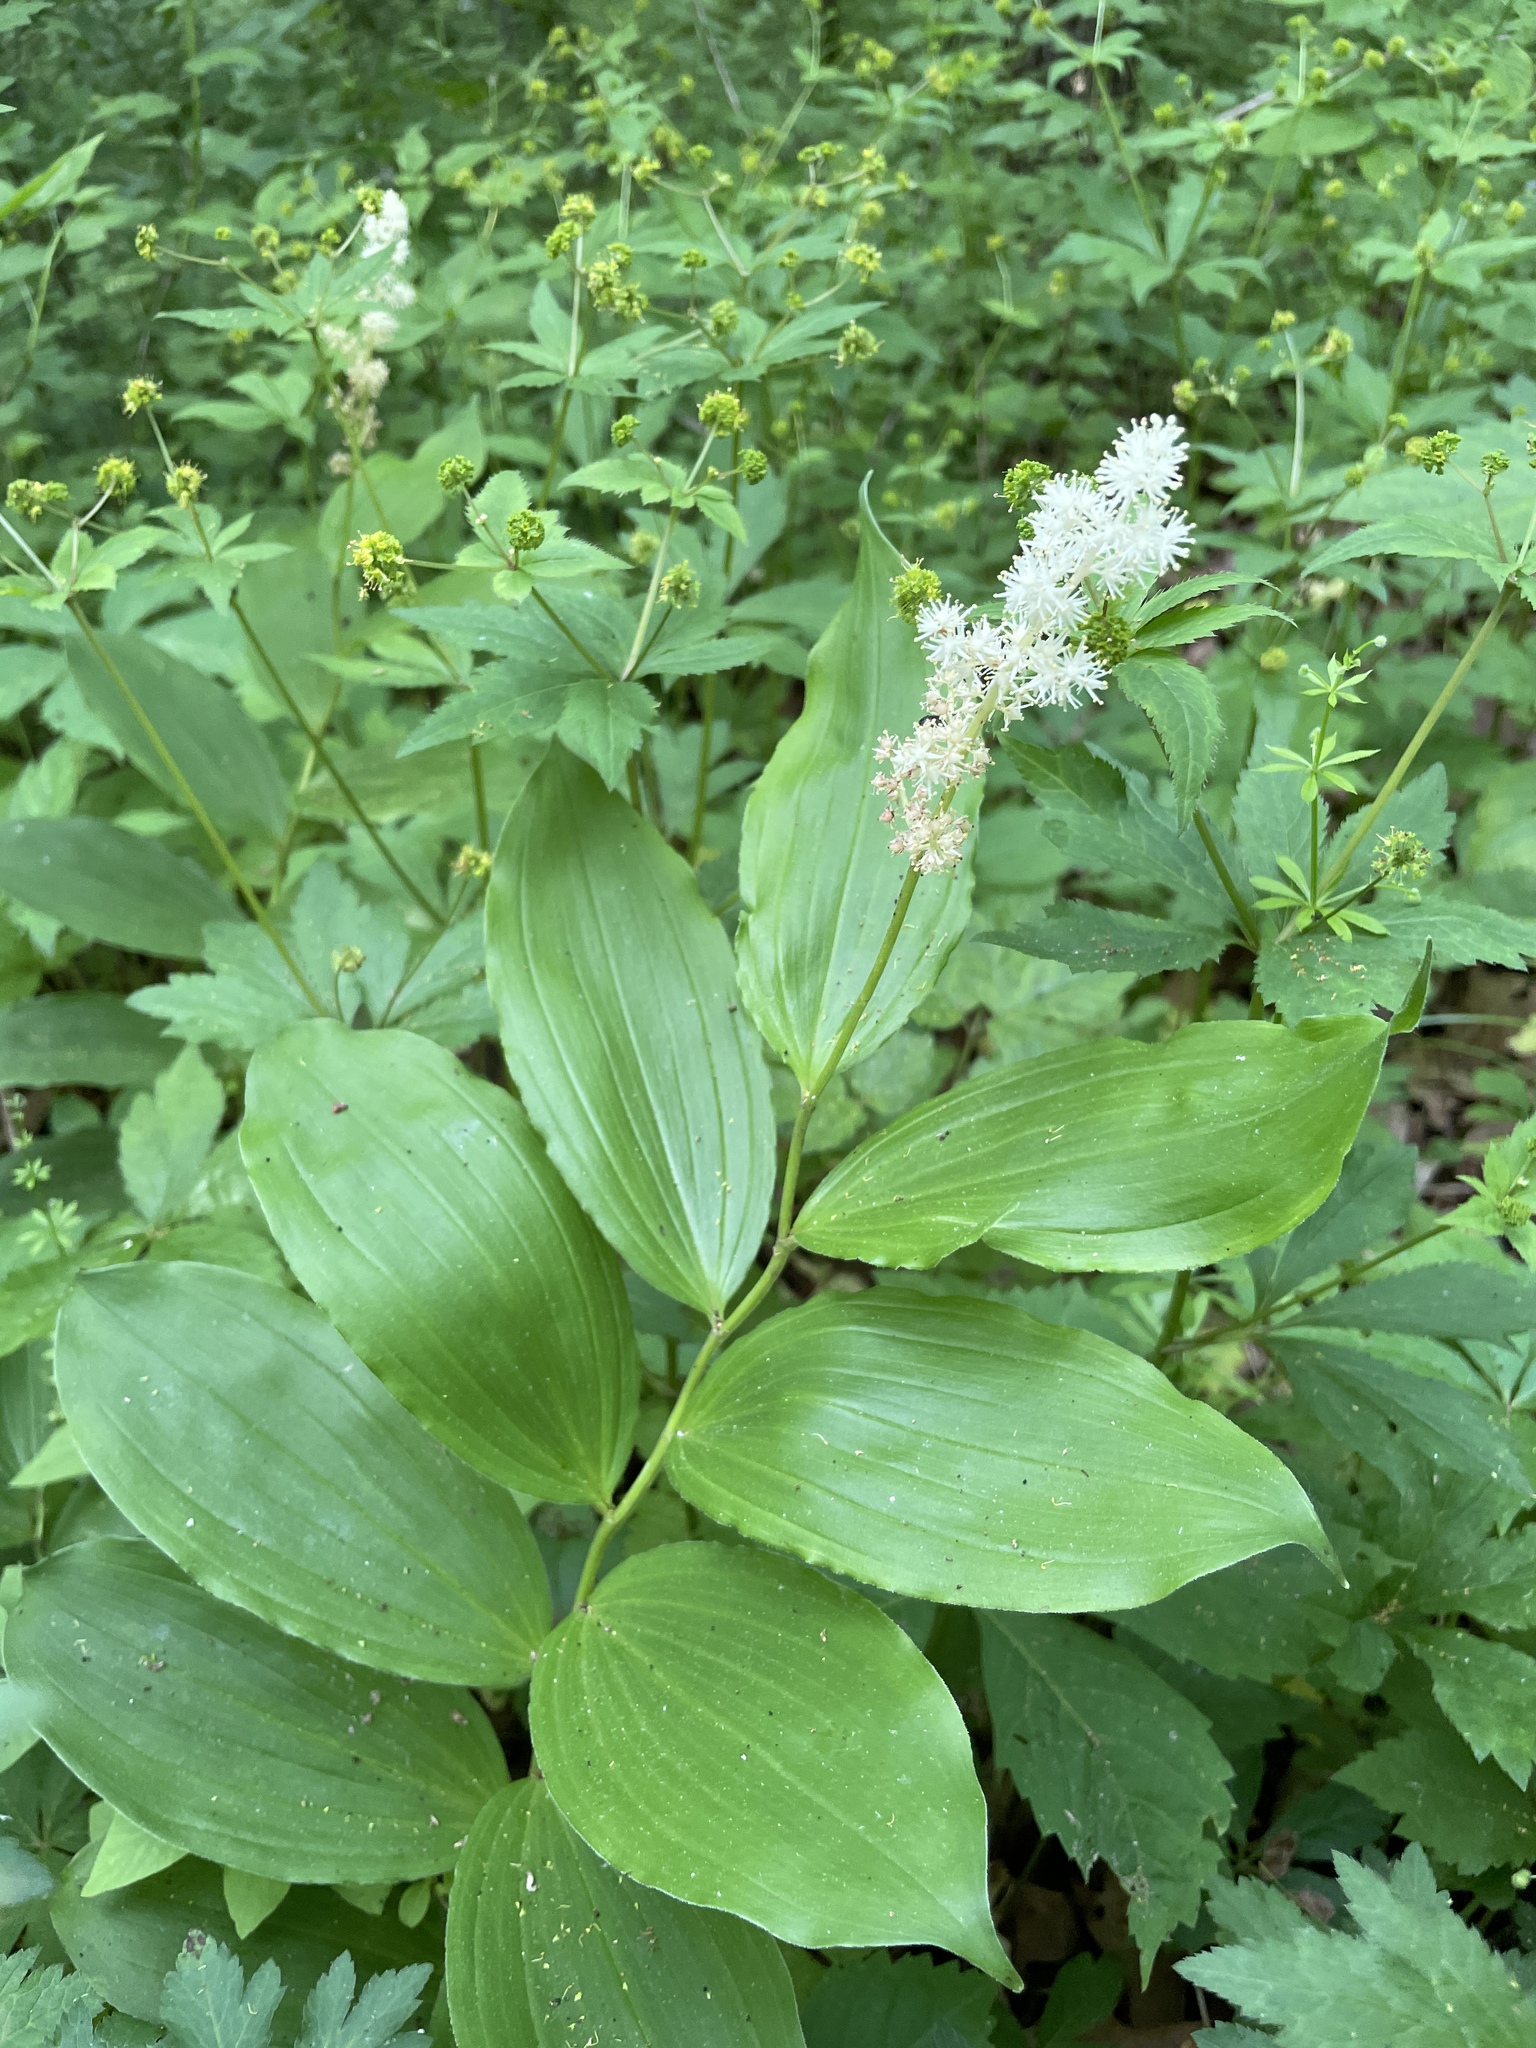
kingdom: Plantae
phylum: Tracheophyta
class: Liliopsida
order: Asparagales
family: Asparagaceae
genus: Maianthemum
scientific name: Maianthemum racemosum
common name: False spikenard
